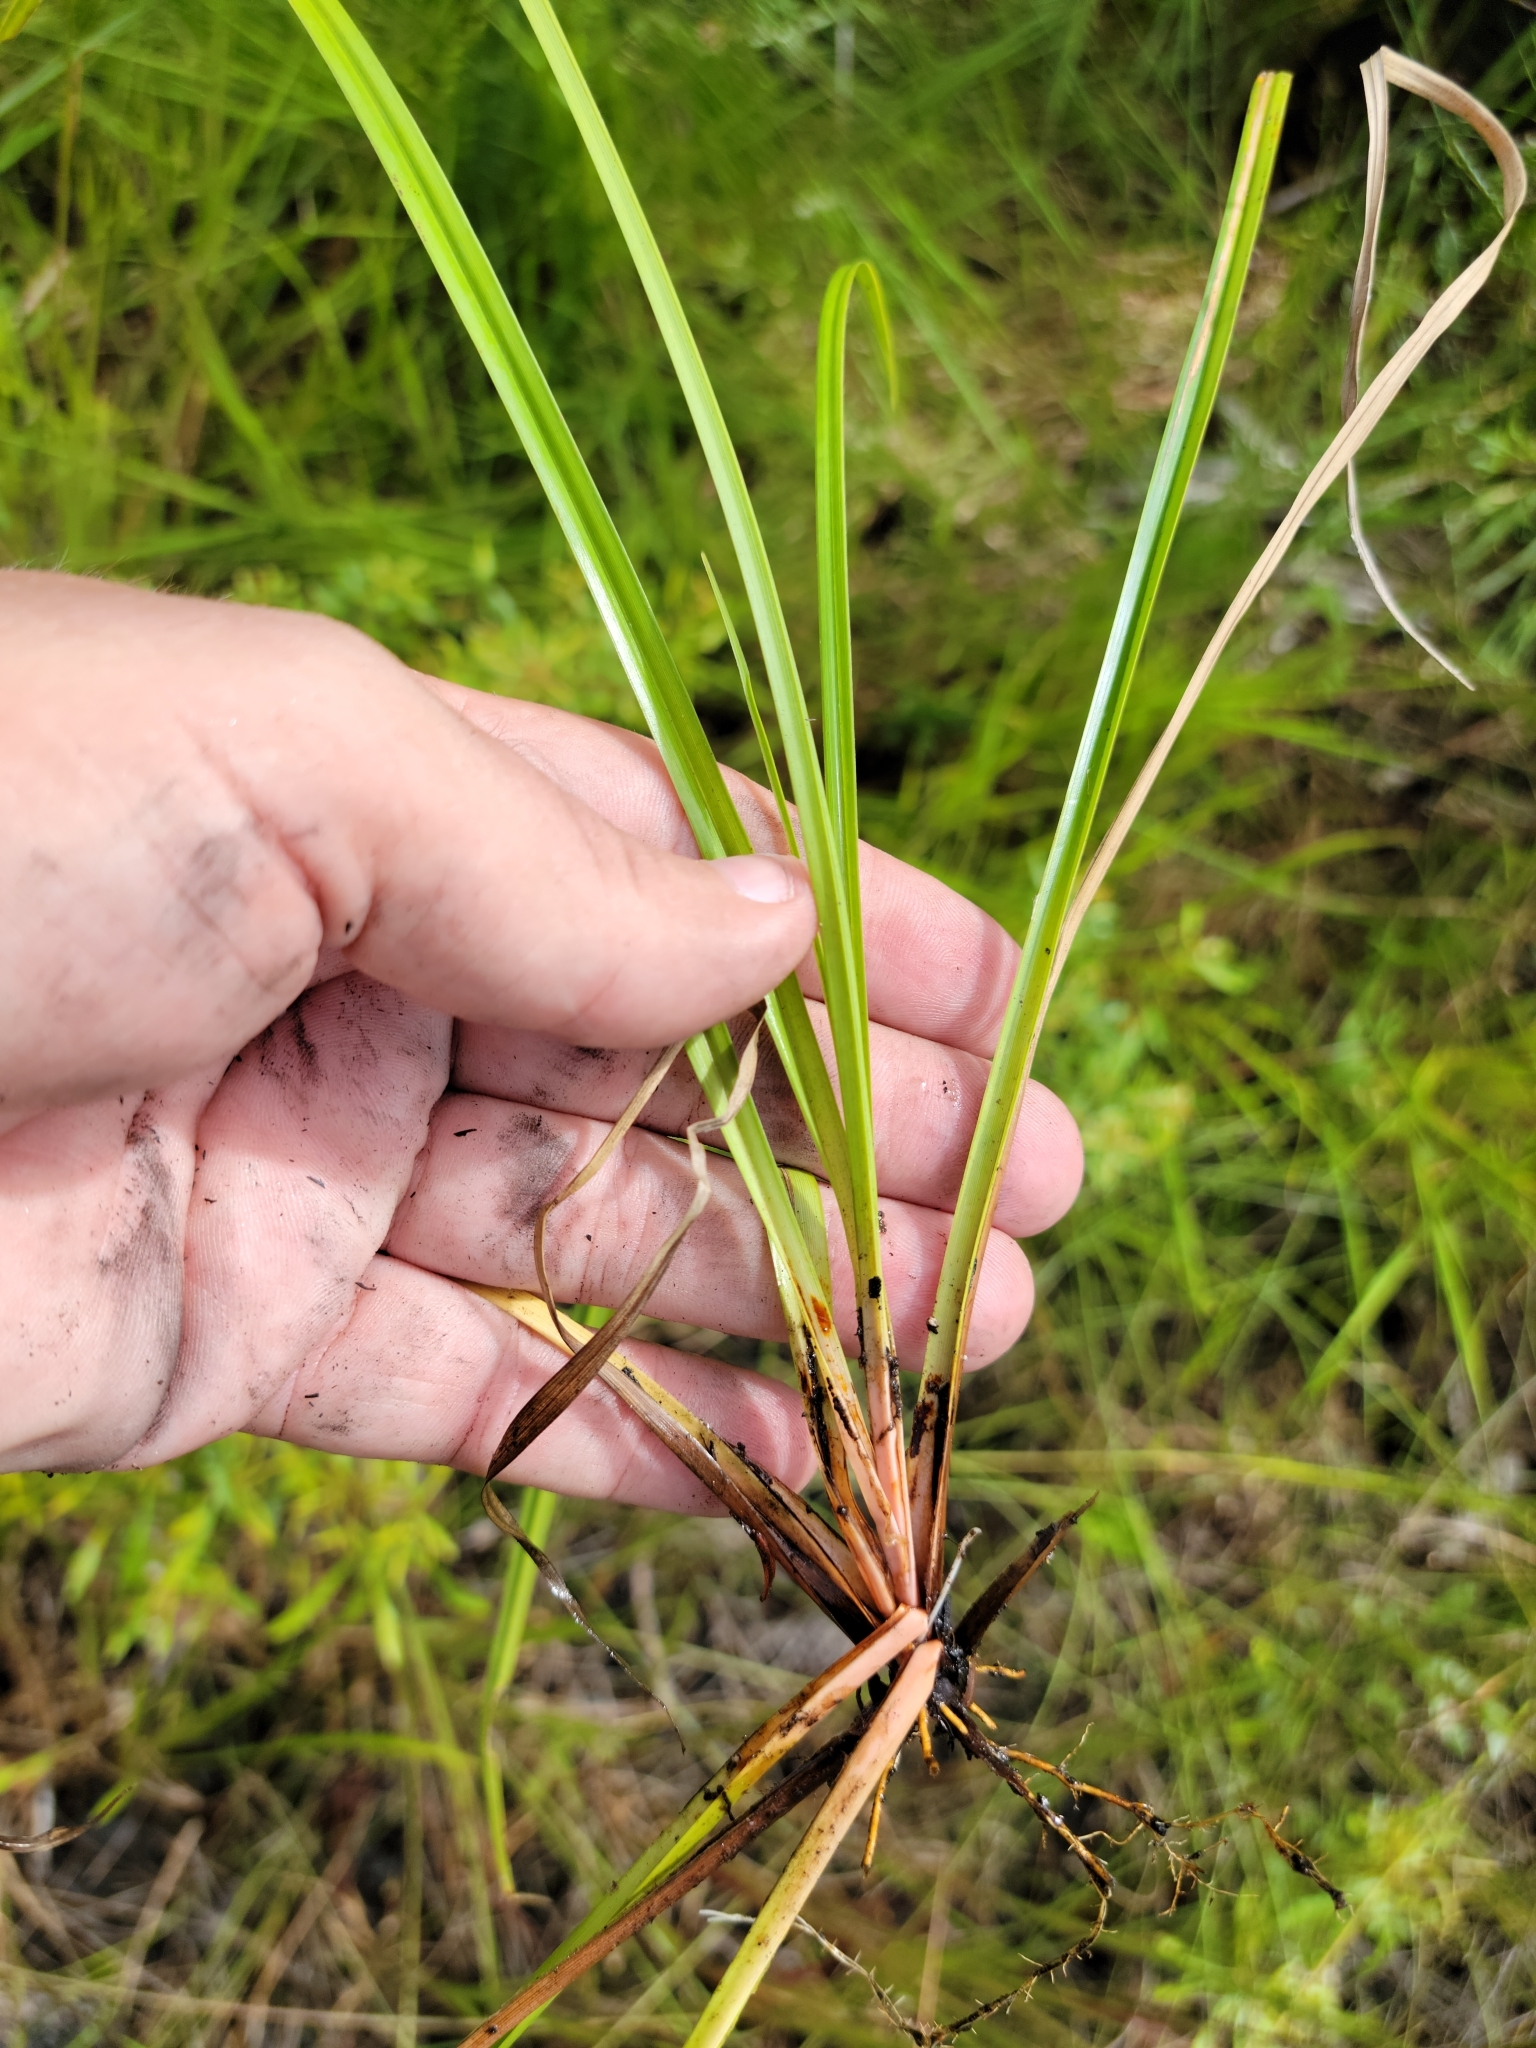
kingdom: Plantae
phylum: Tracheophyta
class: Liliopsida
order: Poales
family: Cyperaceae
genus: Rhynchospora
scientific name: Rhynchospora odorata
